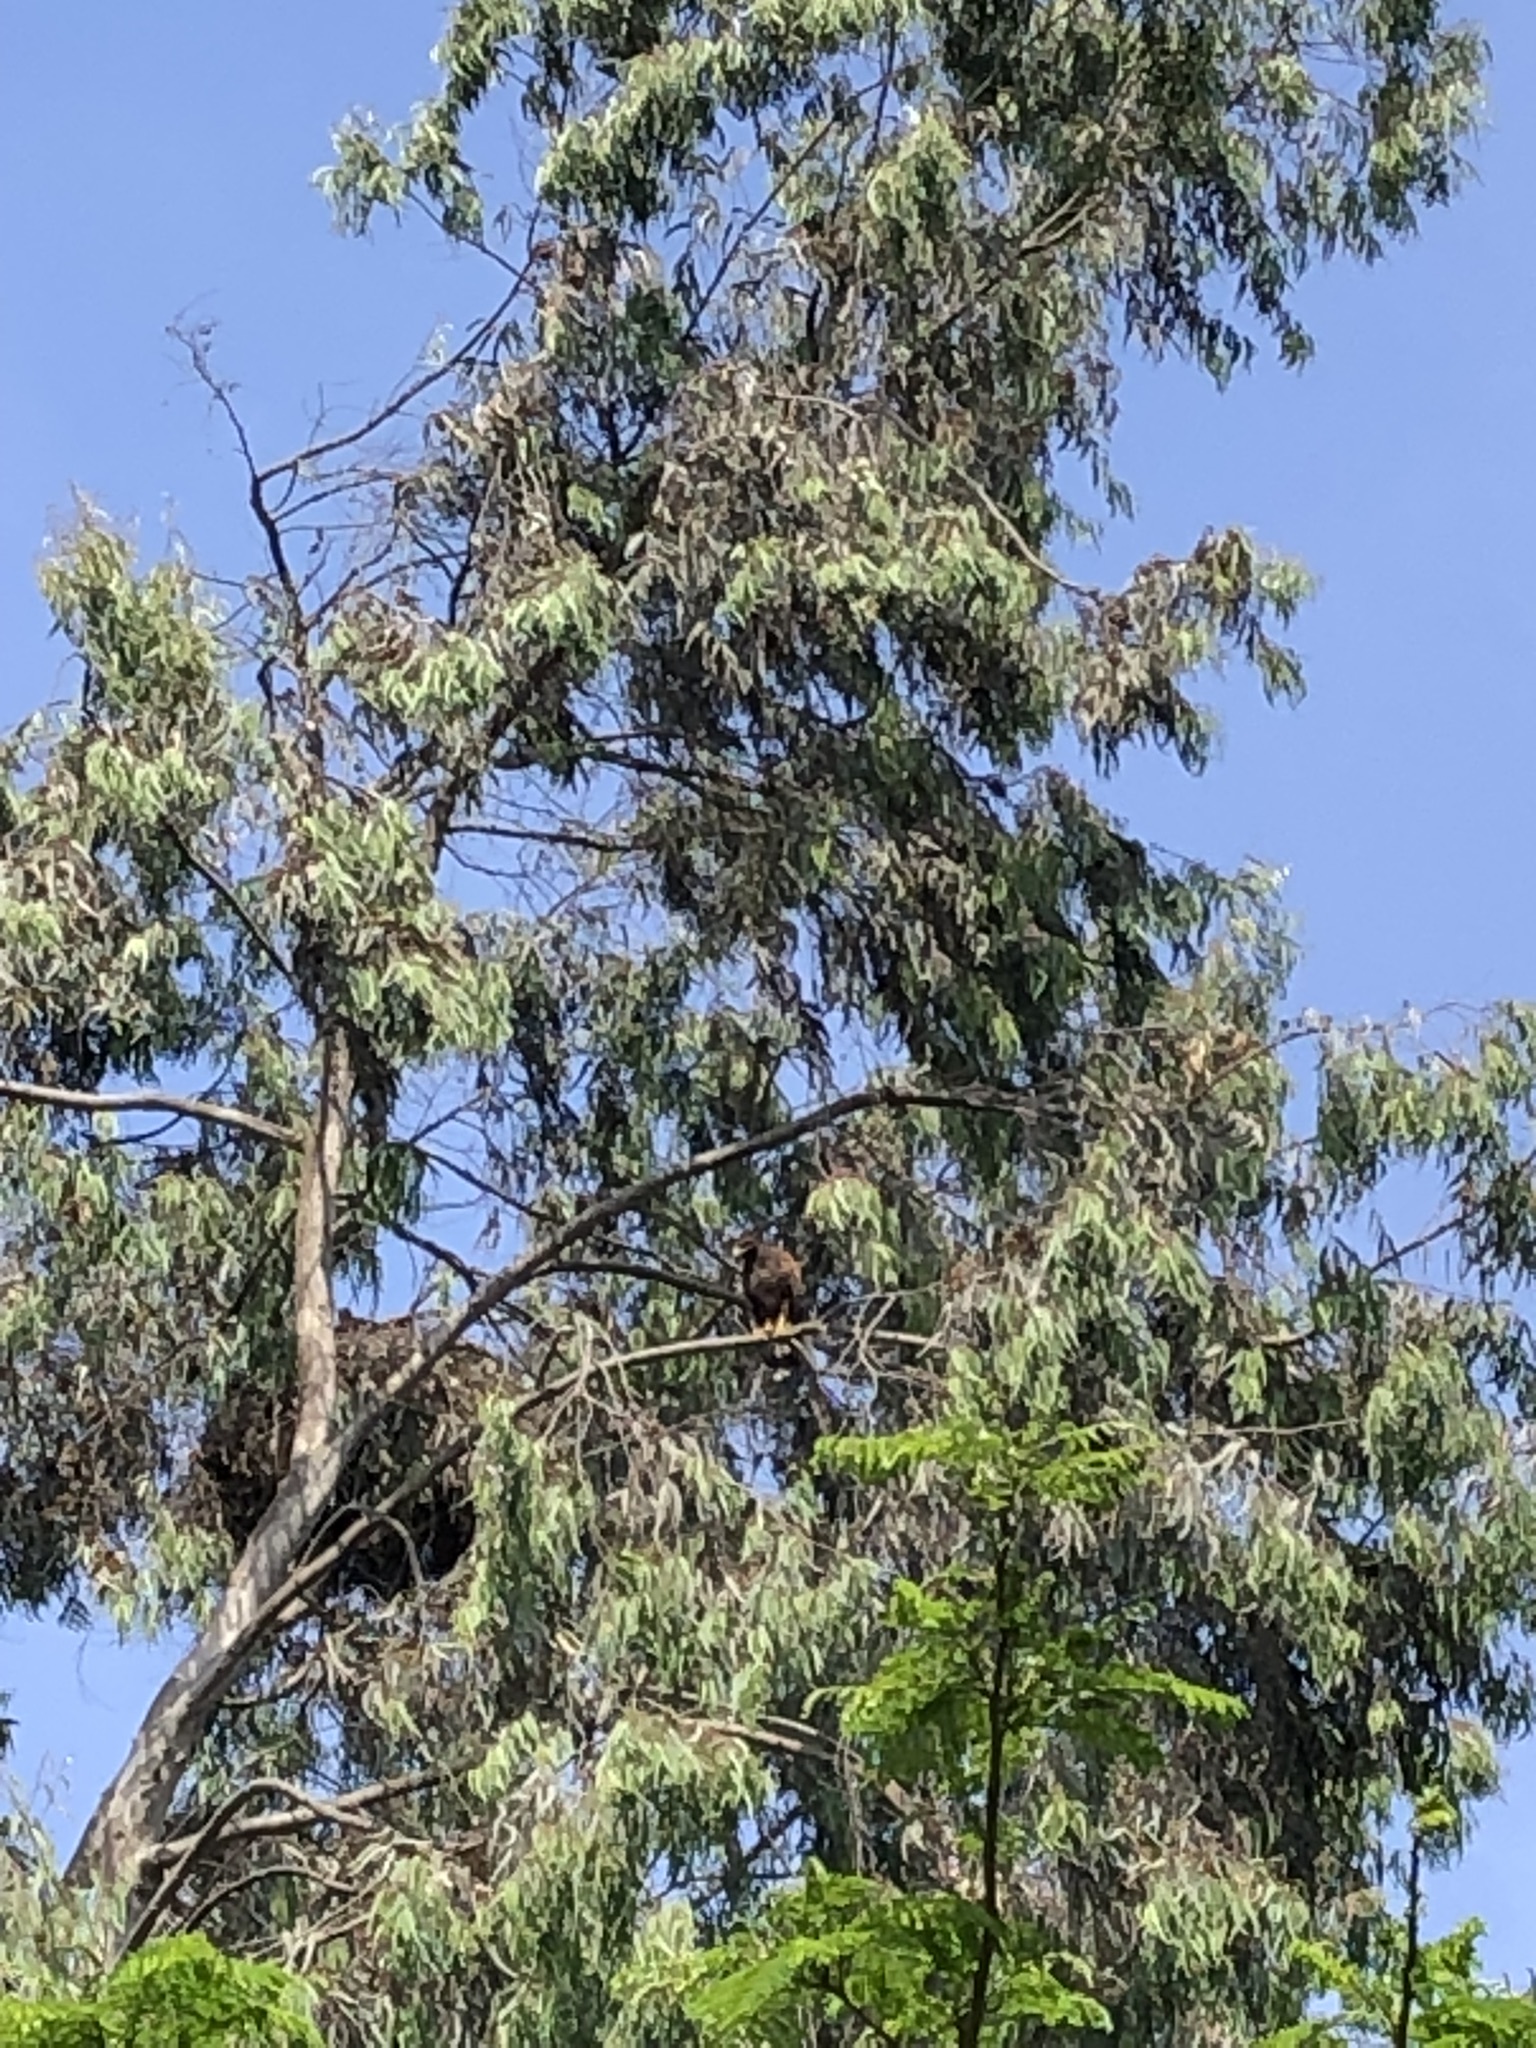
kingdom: Animalia
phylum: Chordata
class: Aves
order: Accipitriformes
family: Accipitridae
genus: Parabuteo
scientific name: Parabuteo unicinctus
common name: Harris's hawk
